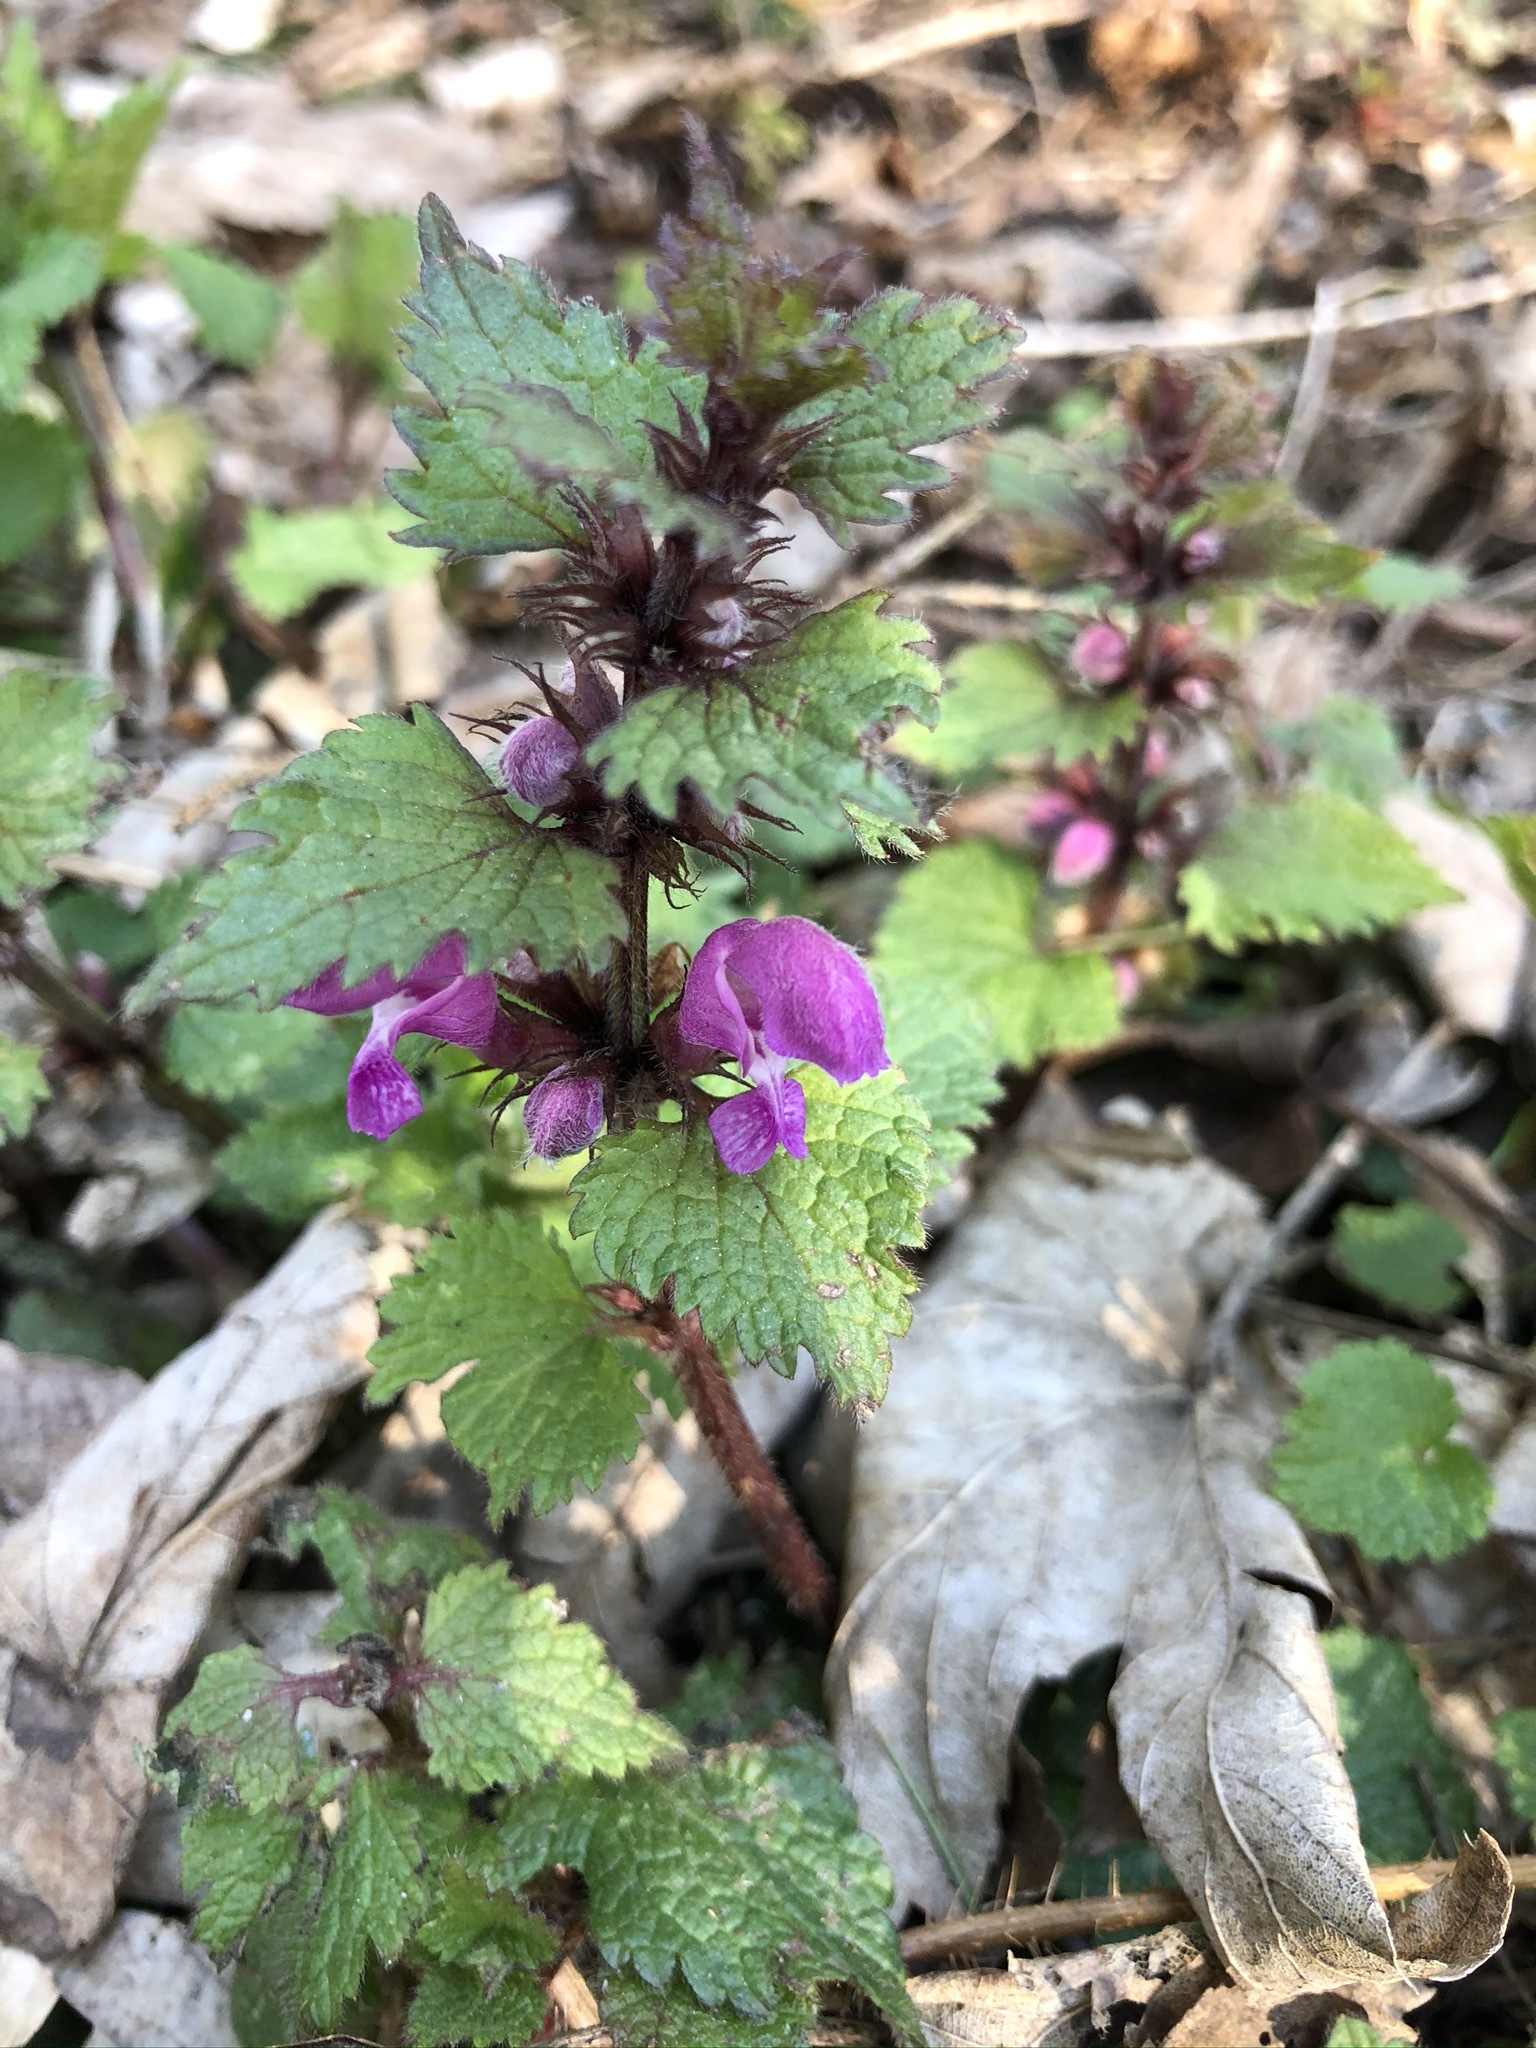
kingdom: Plantae
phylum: Tracheophyta
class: Magnoliopsida
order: Lamiales
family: Lamiaceae
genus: Lamium
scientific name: Lamium maculatum
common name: Spotted dead-nettle
